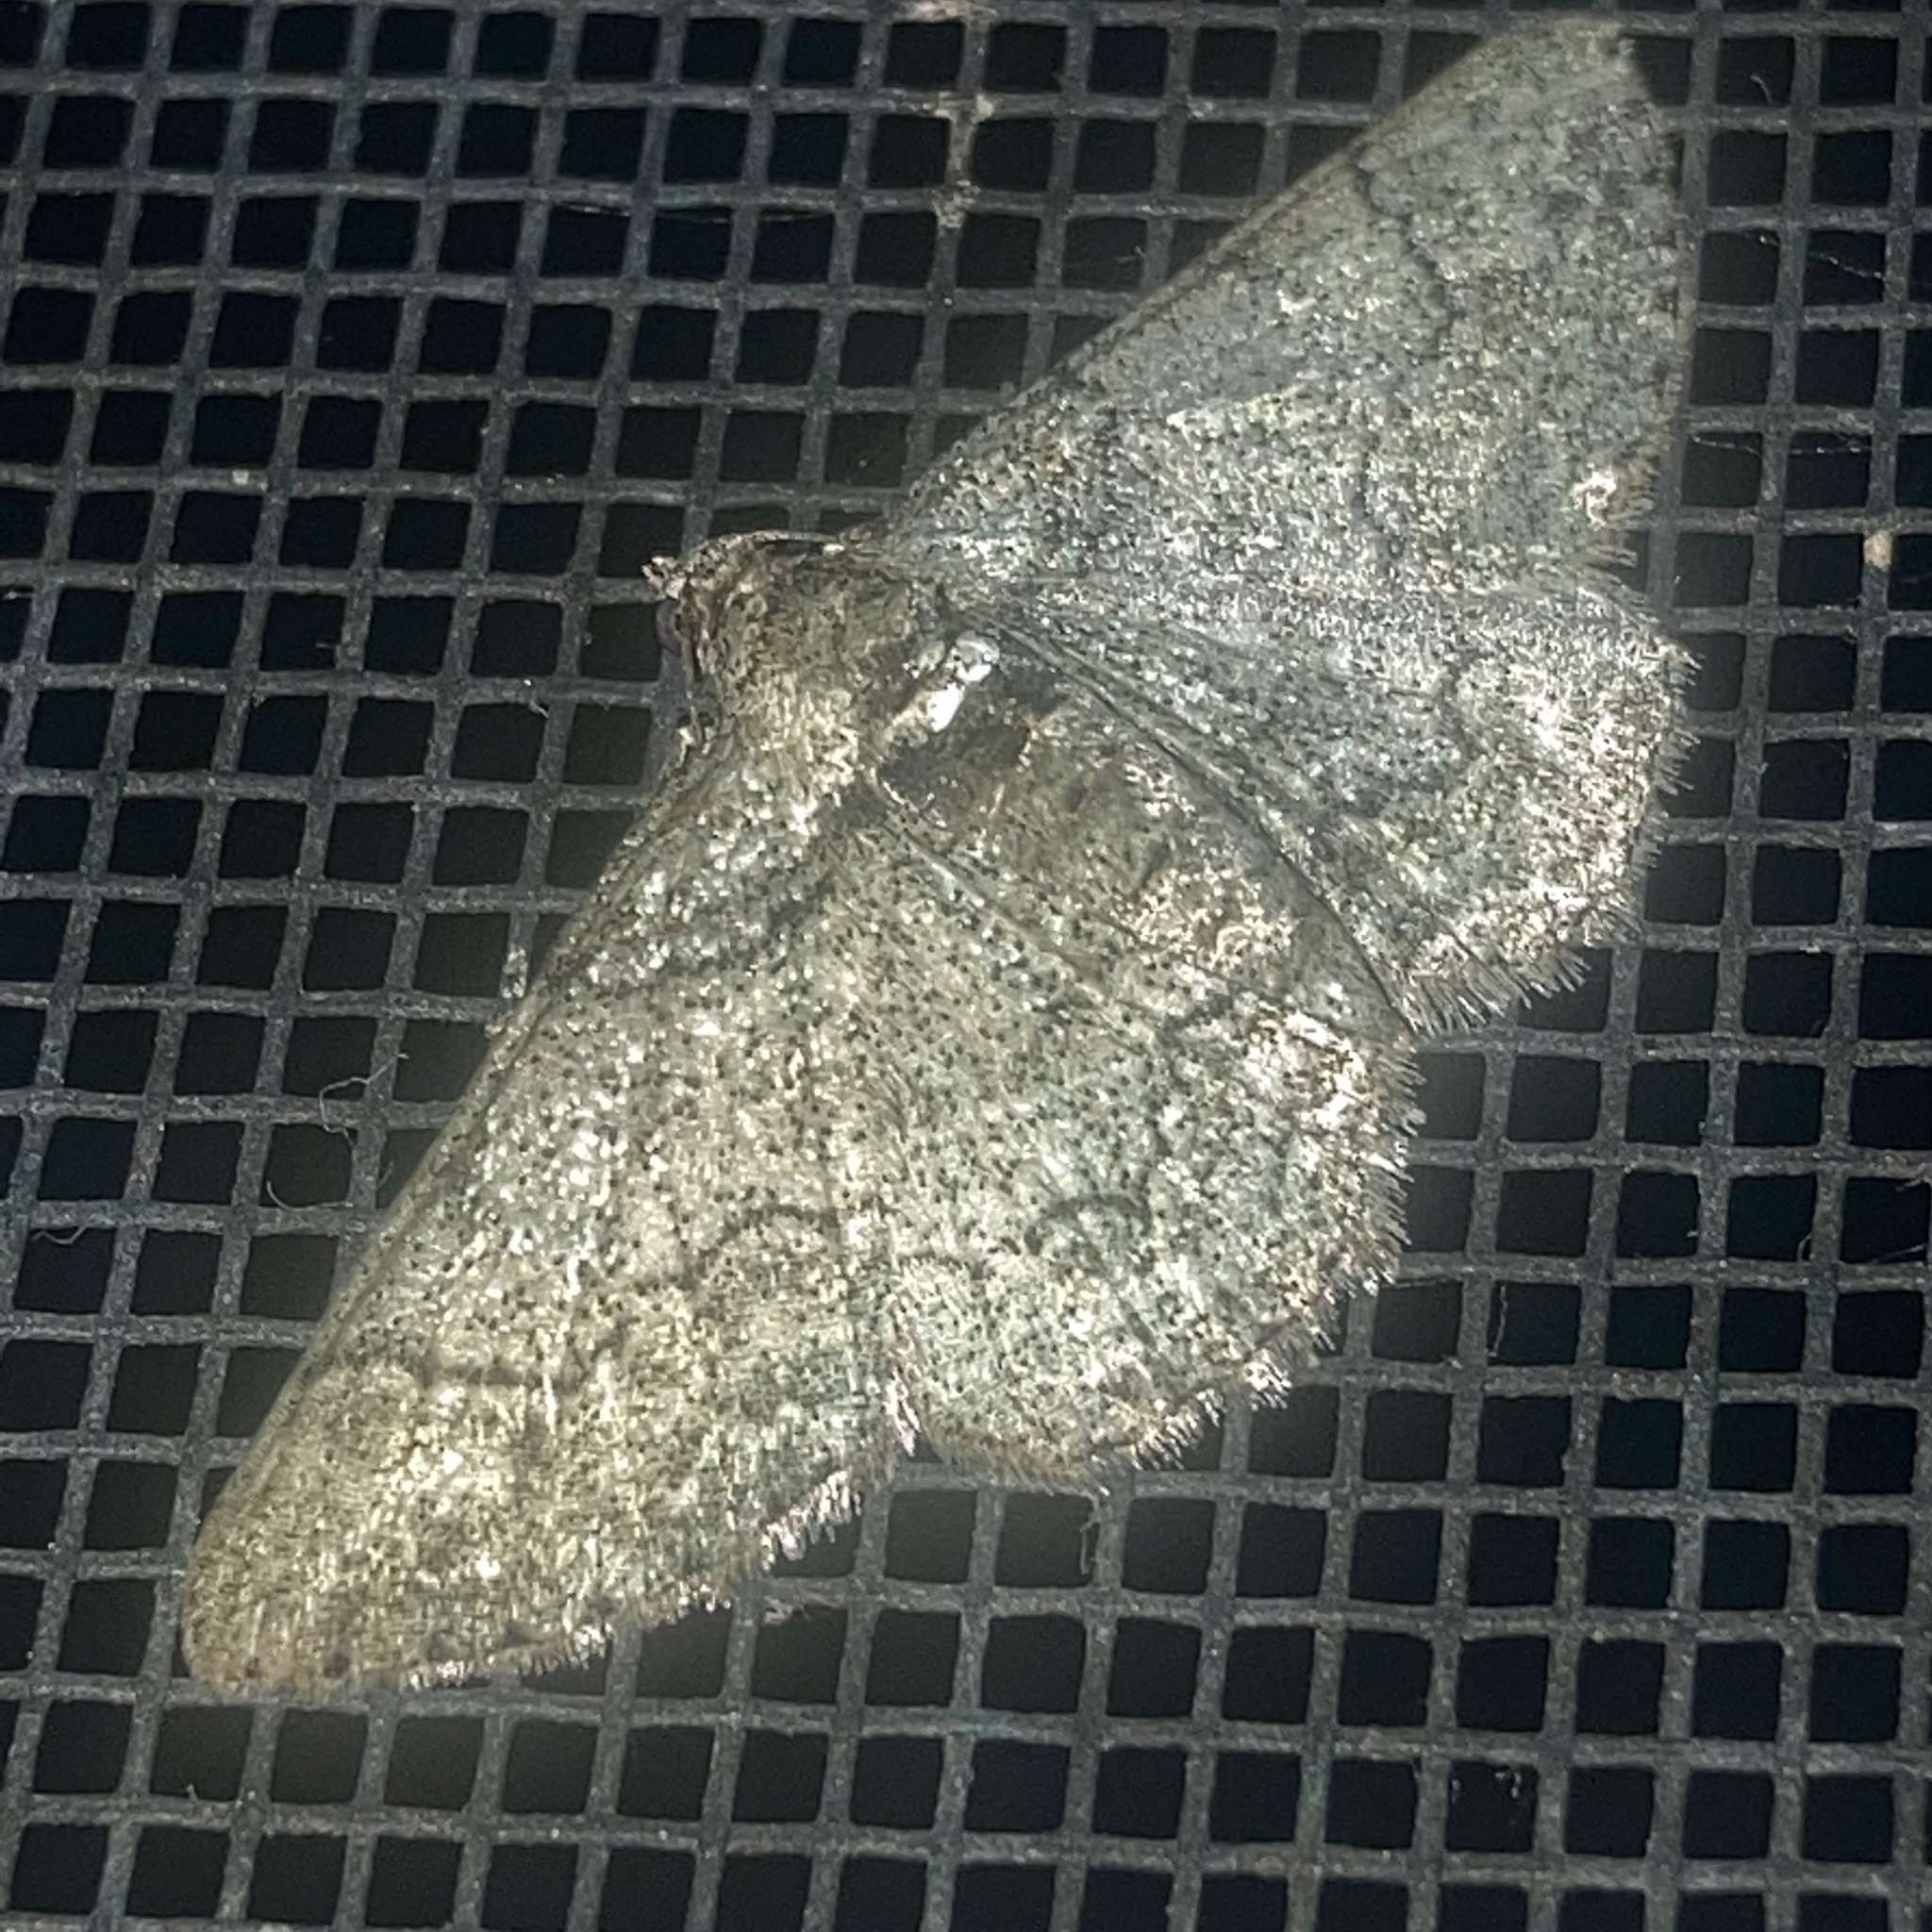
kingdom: Animalia
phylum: Arthropoda
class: Insecta
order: Lepidoptera
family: Geometridae
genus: Cleora
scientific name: Cleora sublunaria
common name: Double-lined gray
